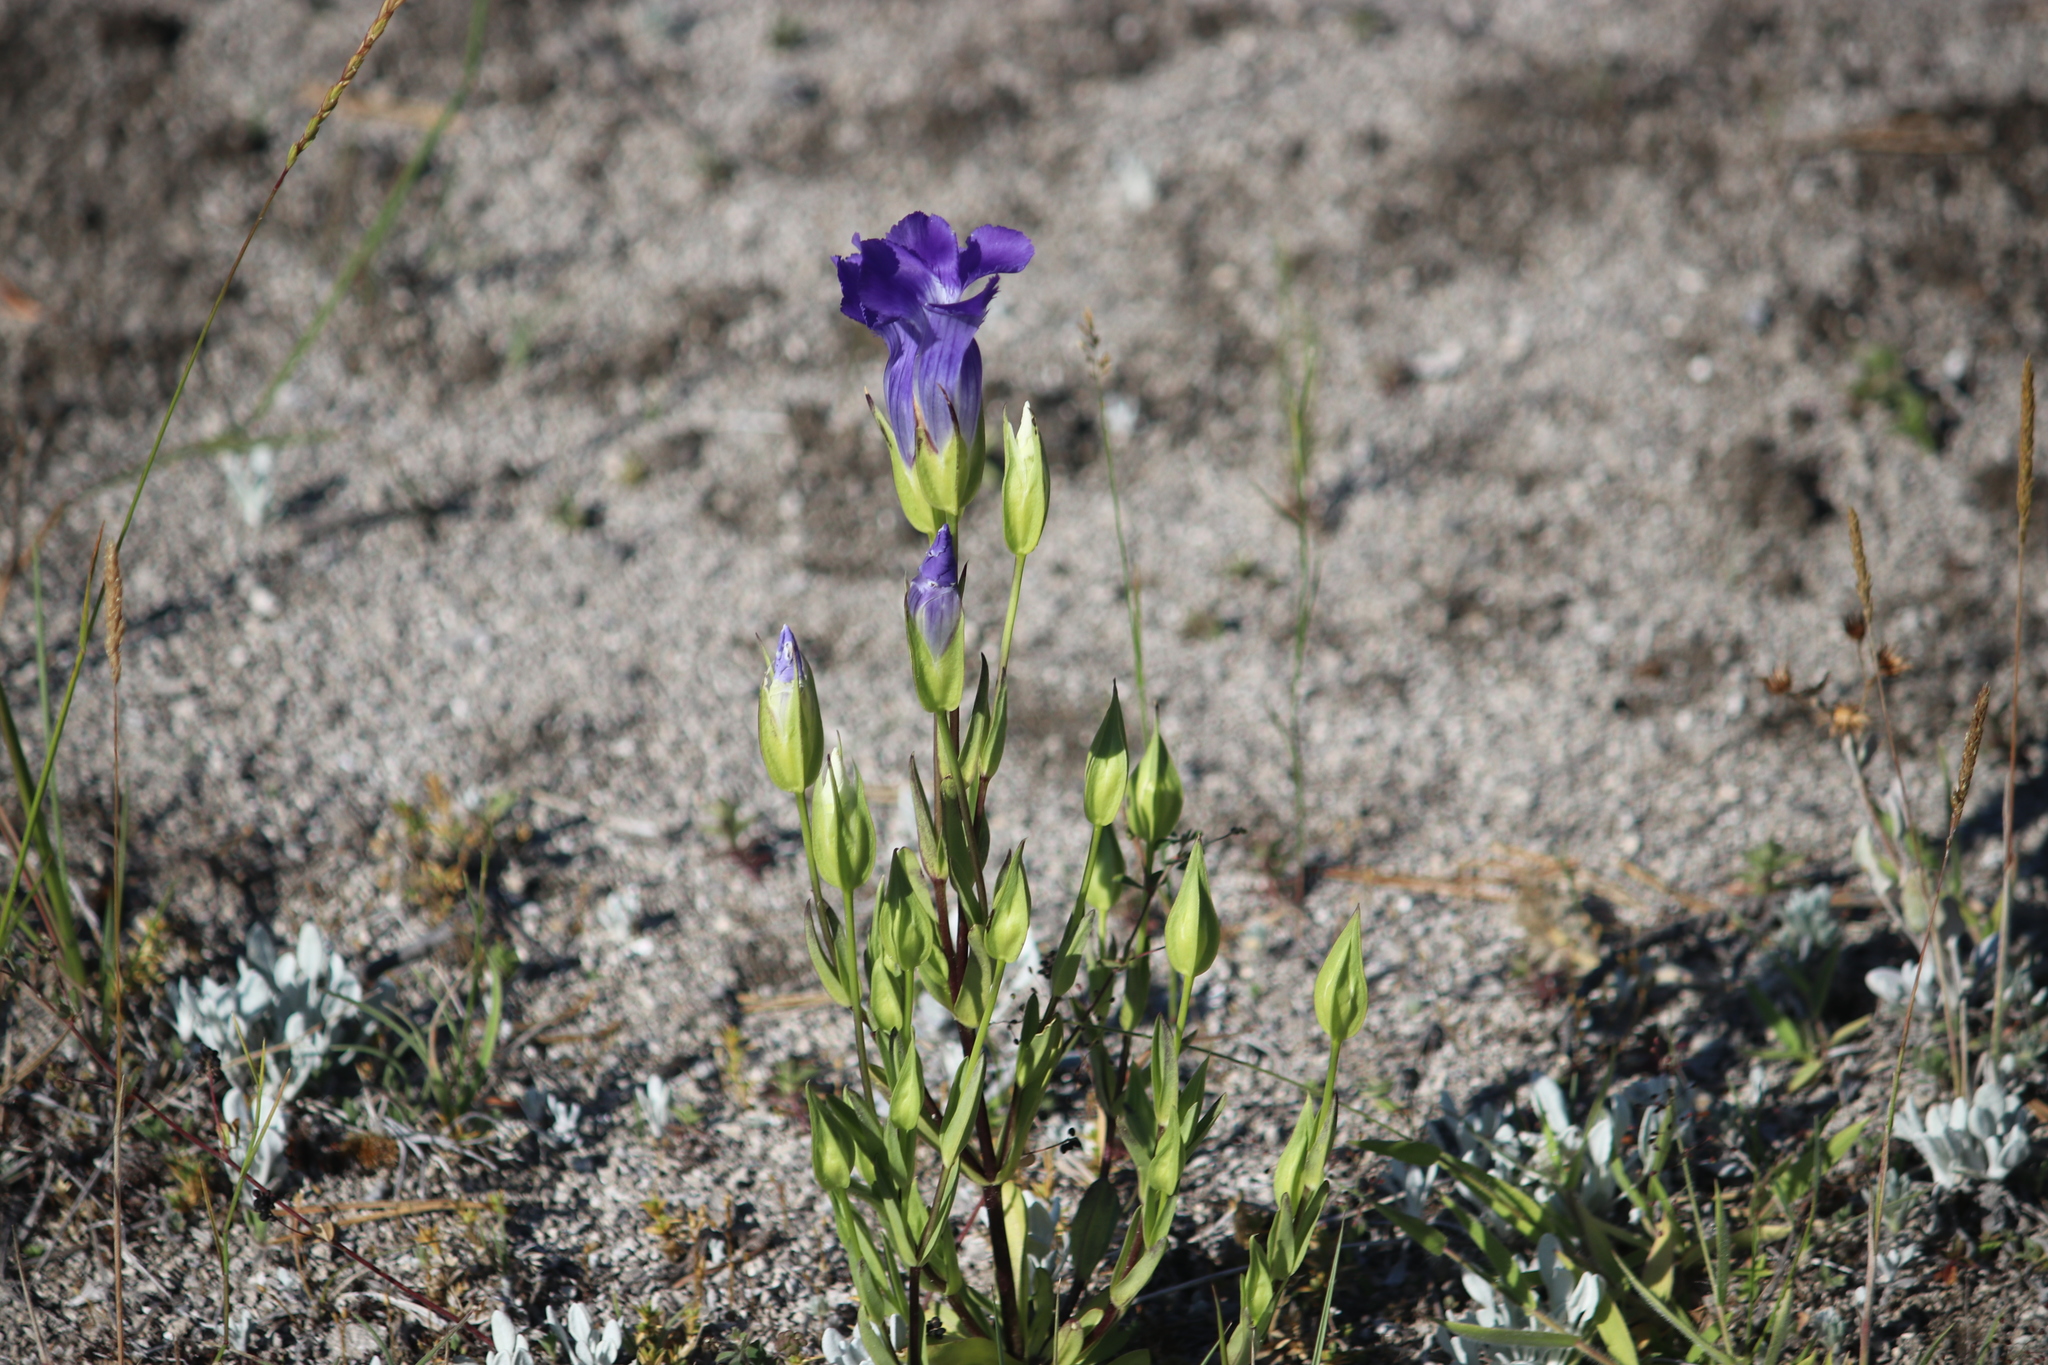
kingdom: Plantae
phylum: Tracheophyta
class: Magnoliopsida
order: Gentianales
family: Gentianaceae
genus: Gentianopsis
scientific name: Gentianopsis thermalis
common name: Rocky mountain fringed-gentian
